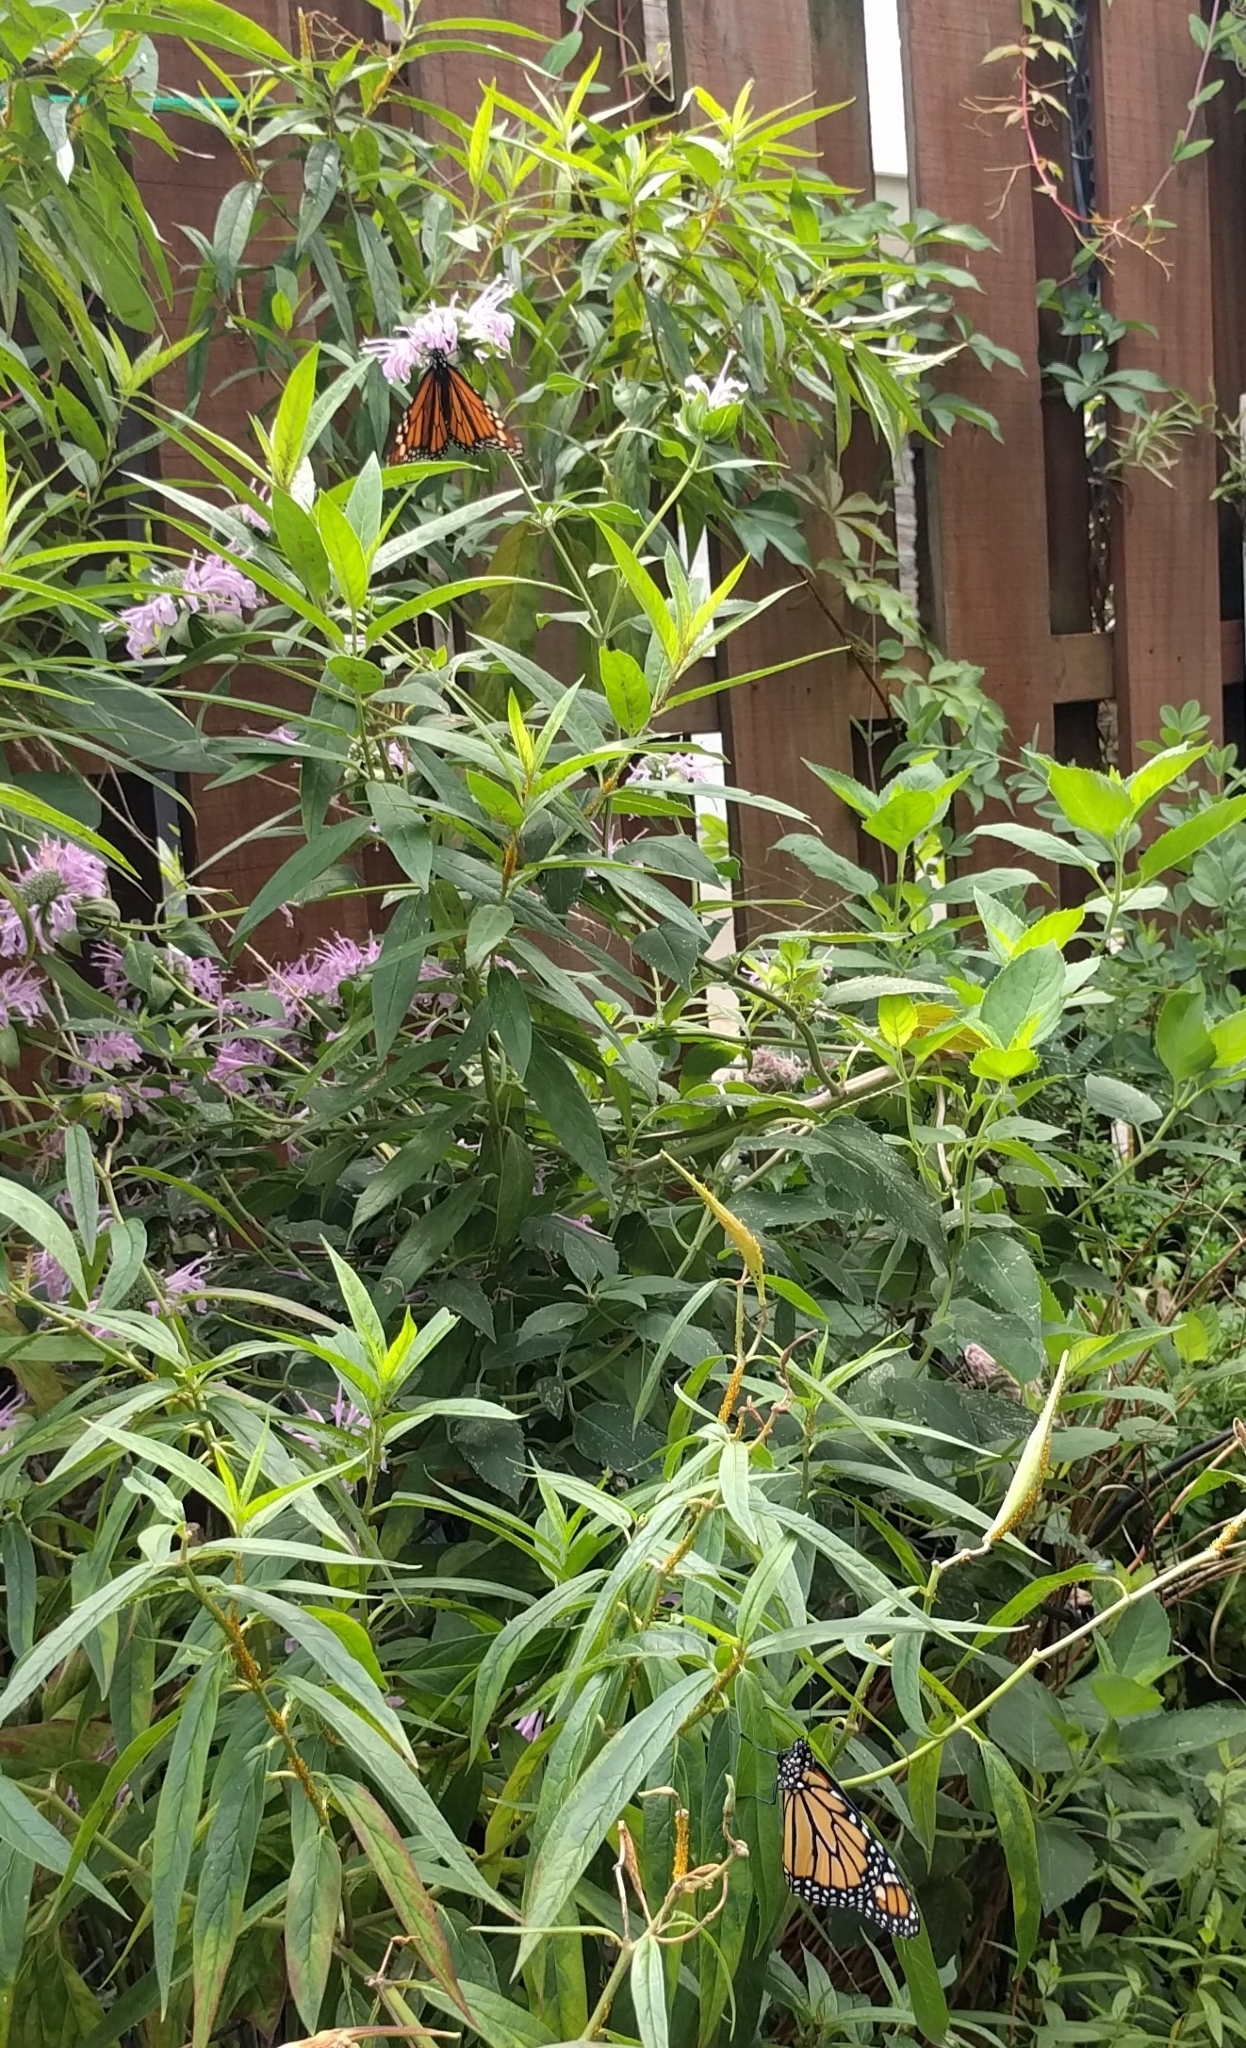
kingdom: Animalia
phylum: Arthropoda
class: Insecta
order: Lepidoptera
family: Nymphalidae
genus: Danaus
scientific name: Danaus plexippus
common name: Monarch
